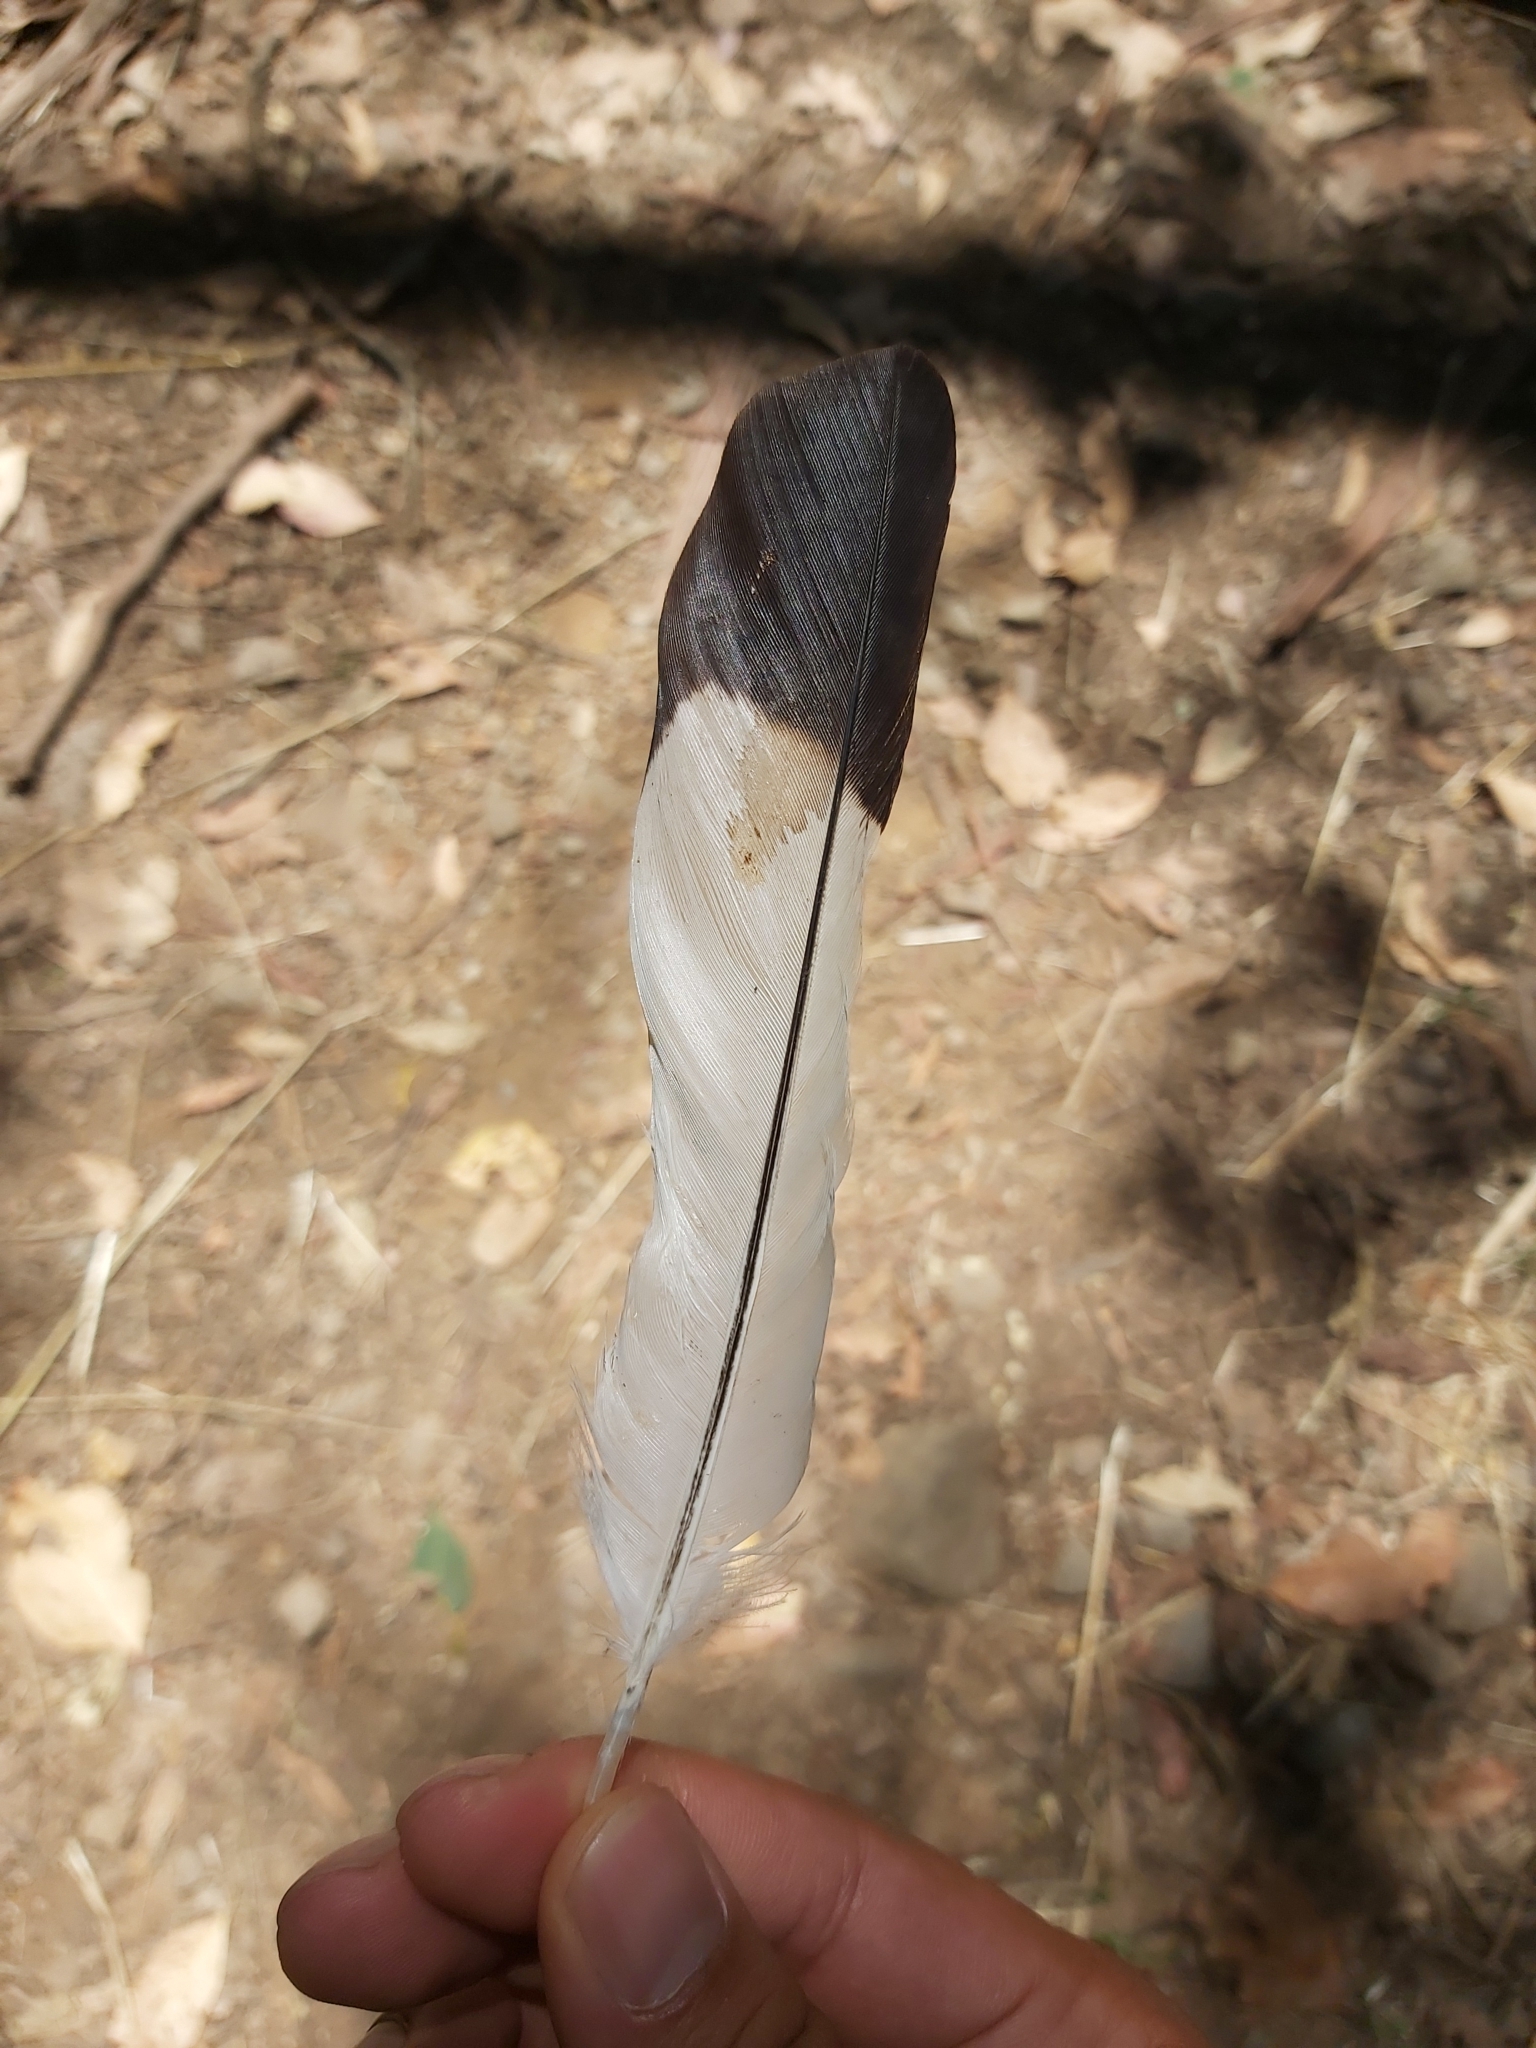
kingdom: Animalia
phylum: Chordata
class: Aves
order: Passeriformes
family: Cracticidae
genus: Gymnorhina
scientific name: Gymnorhina tibicen
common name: Australian magpie
